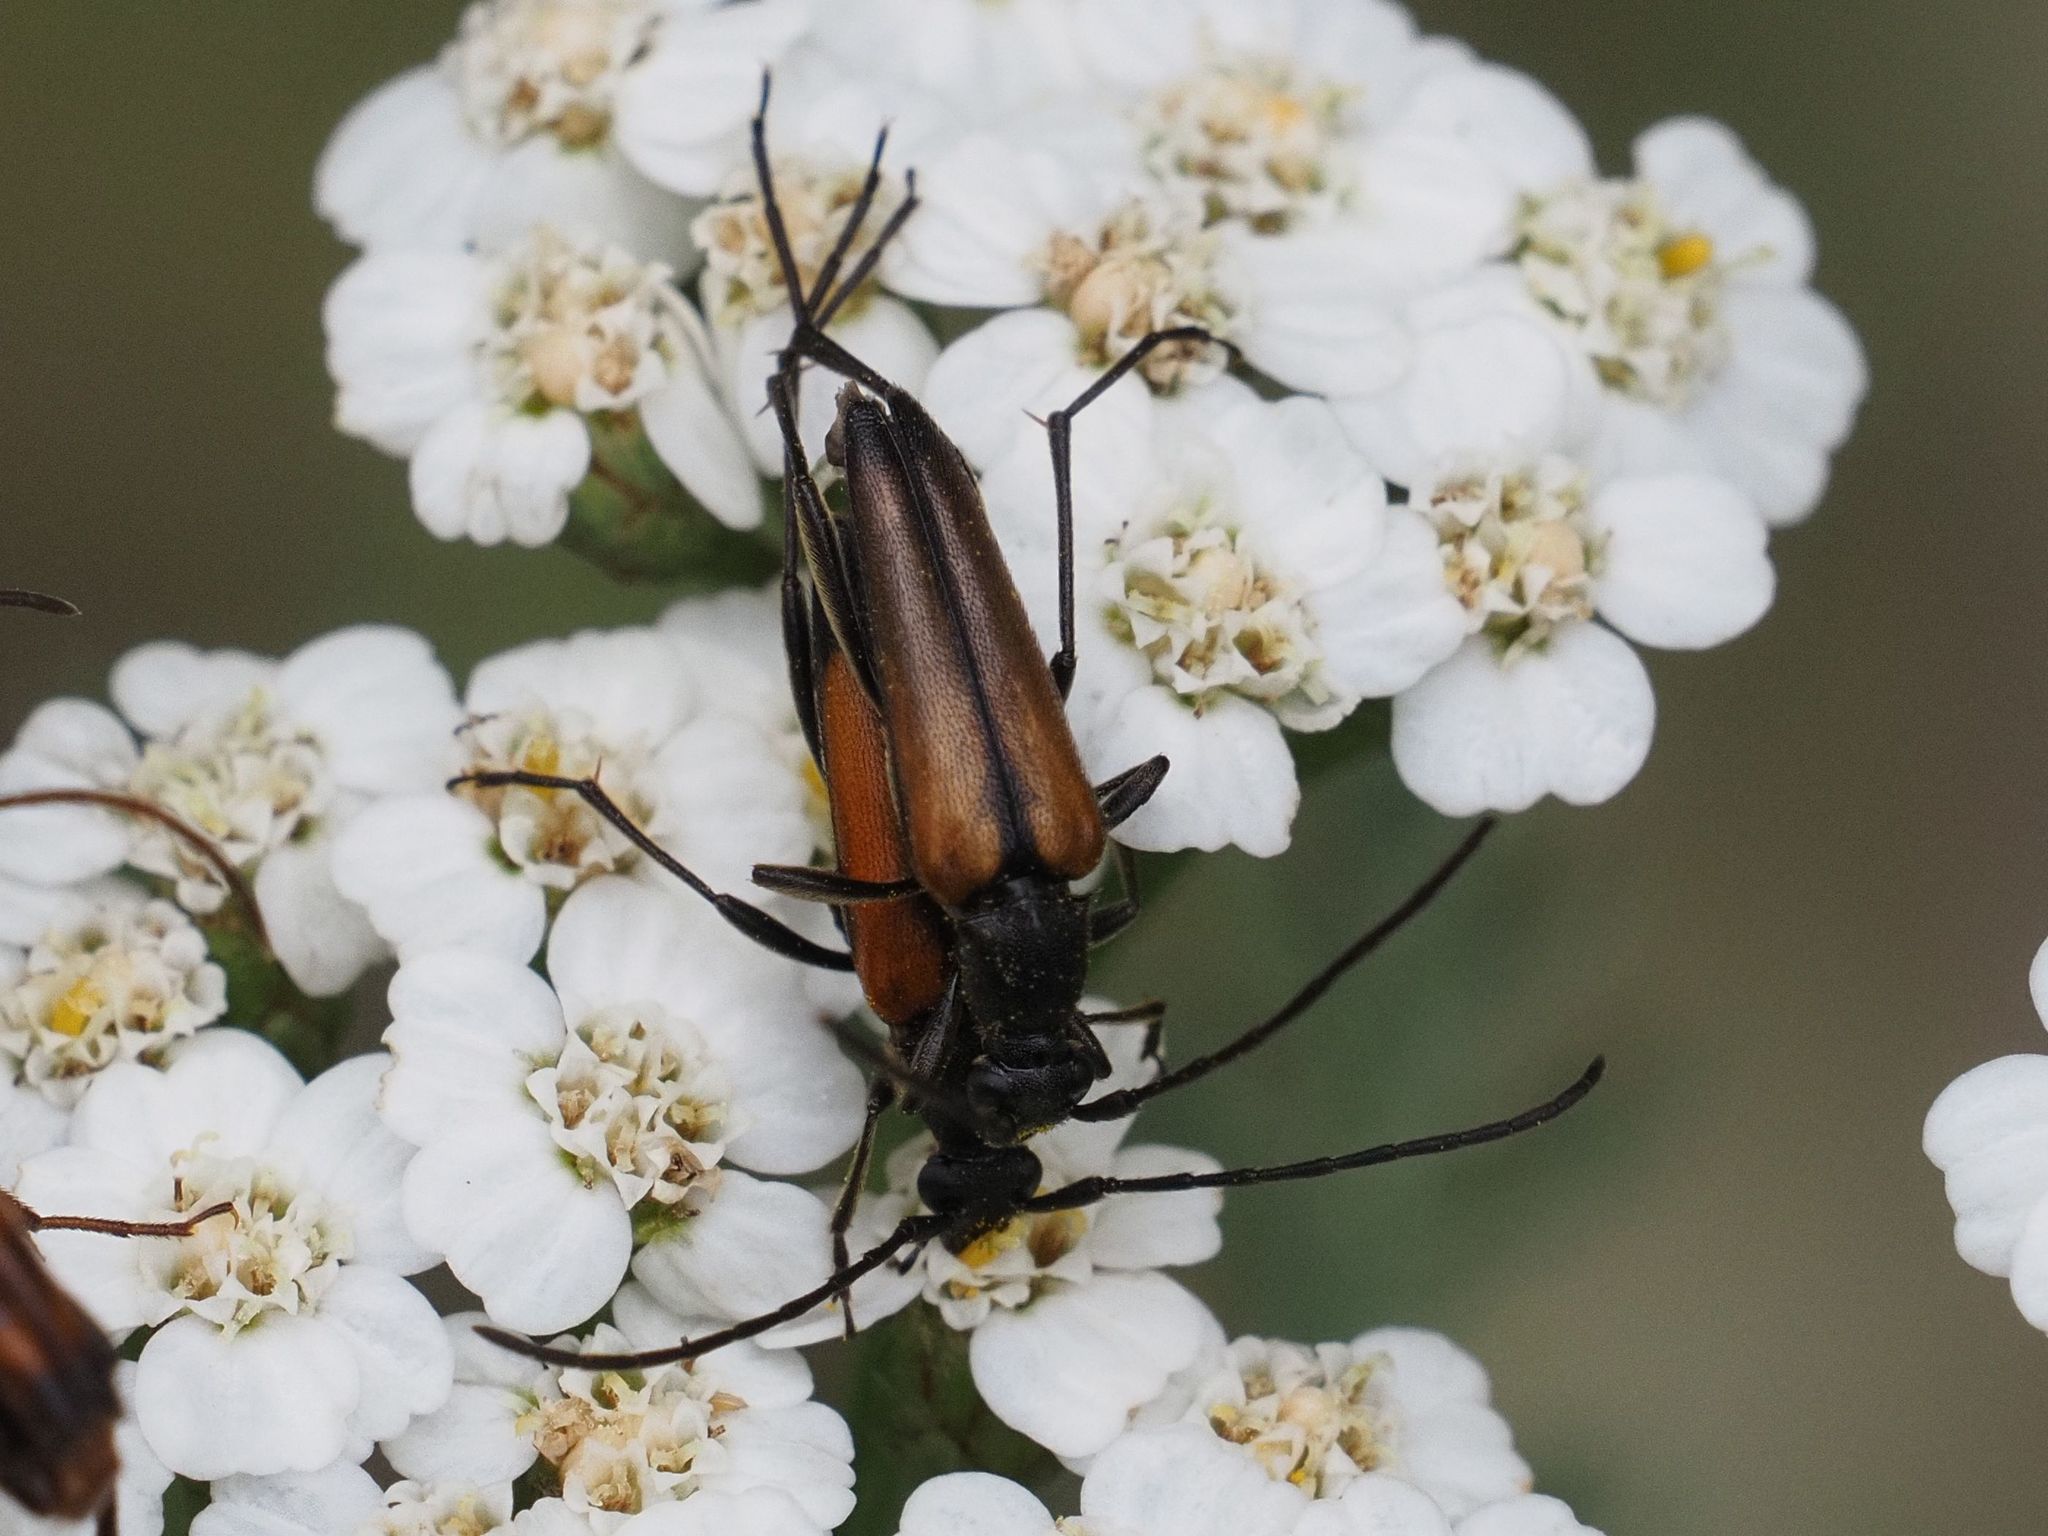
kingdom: Animalia
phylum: Arthropoda
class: Insecta
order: Coleoptera
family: Cerambycidae
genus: Stenurella
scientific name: Stenurella melanura
